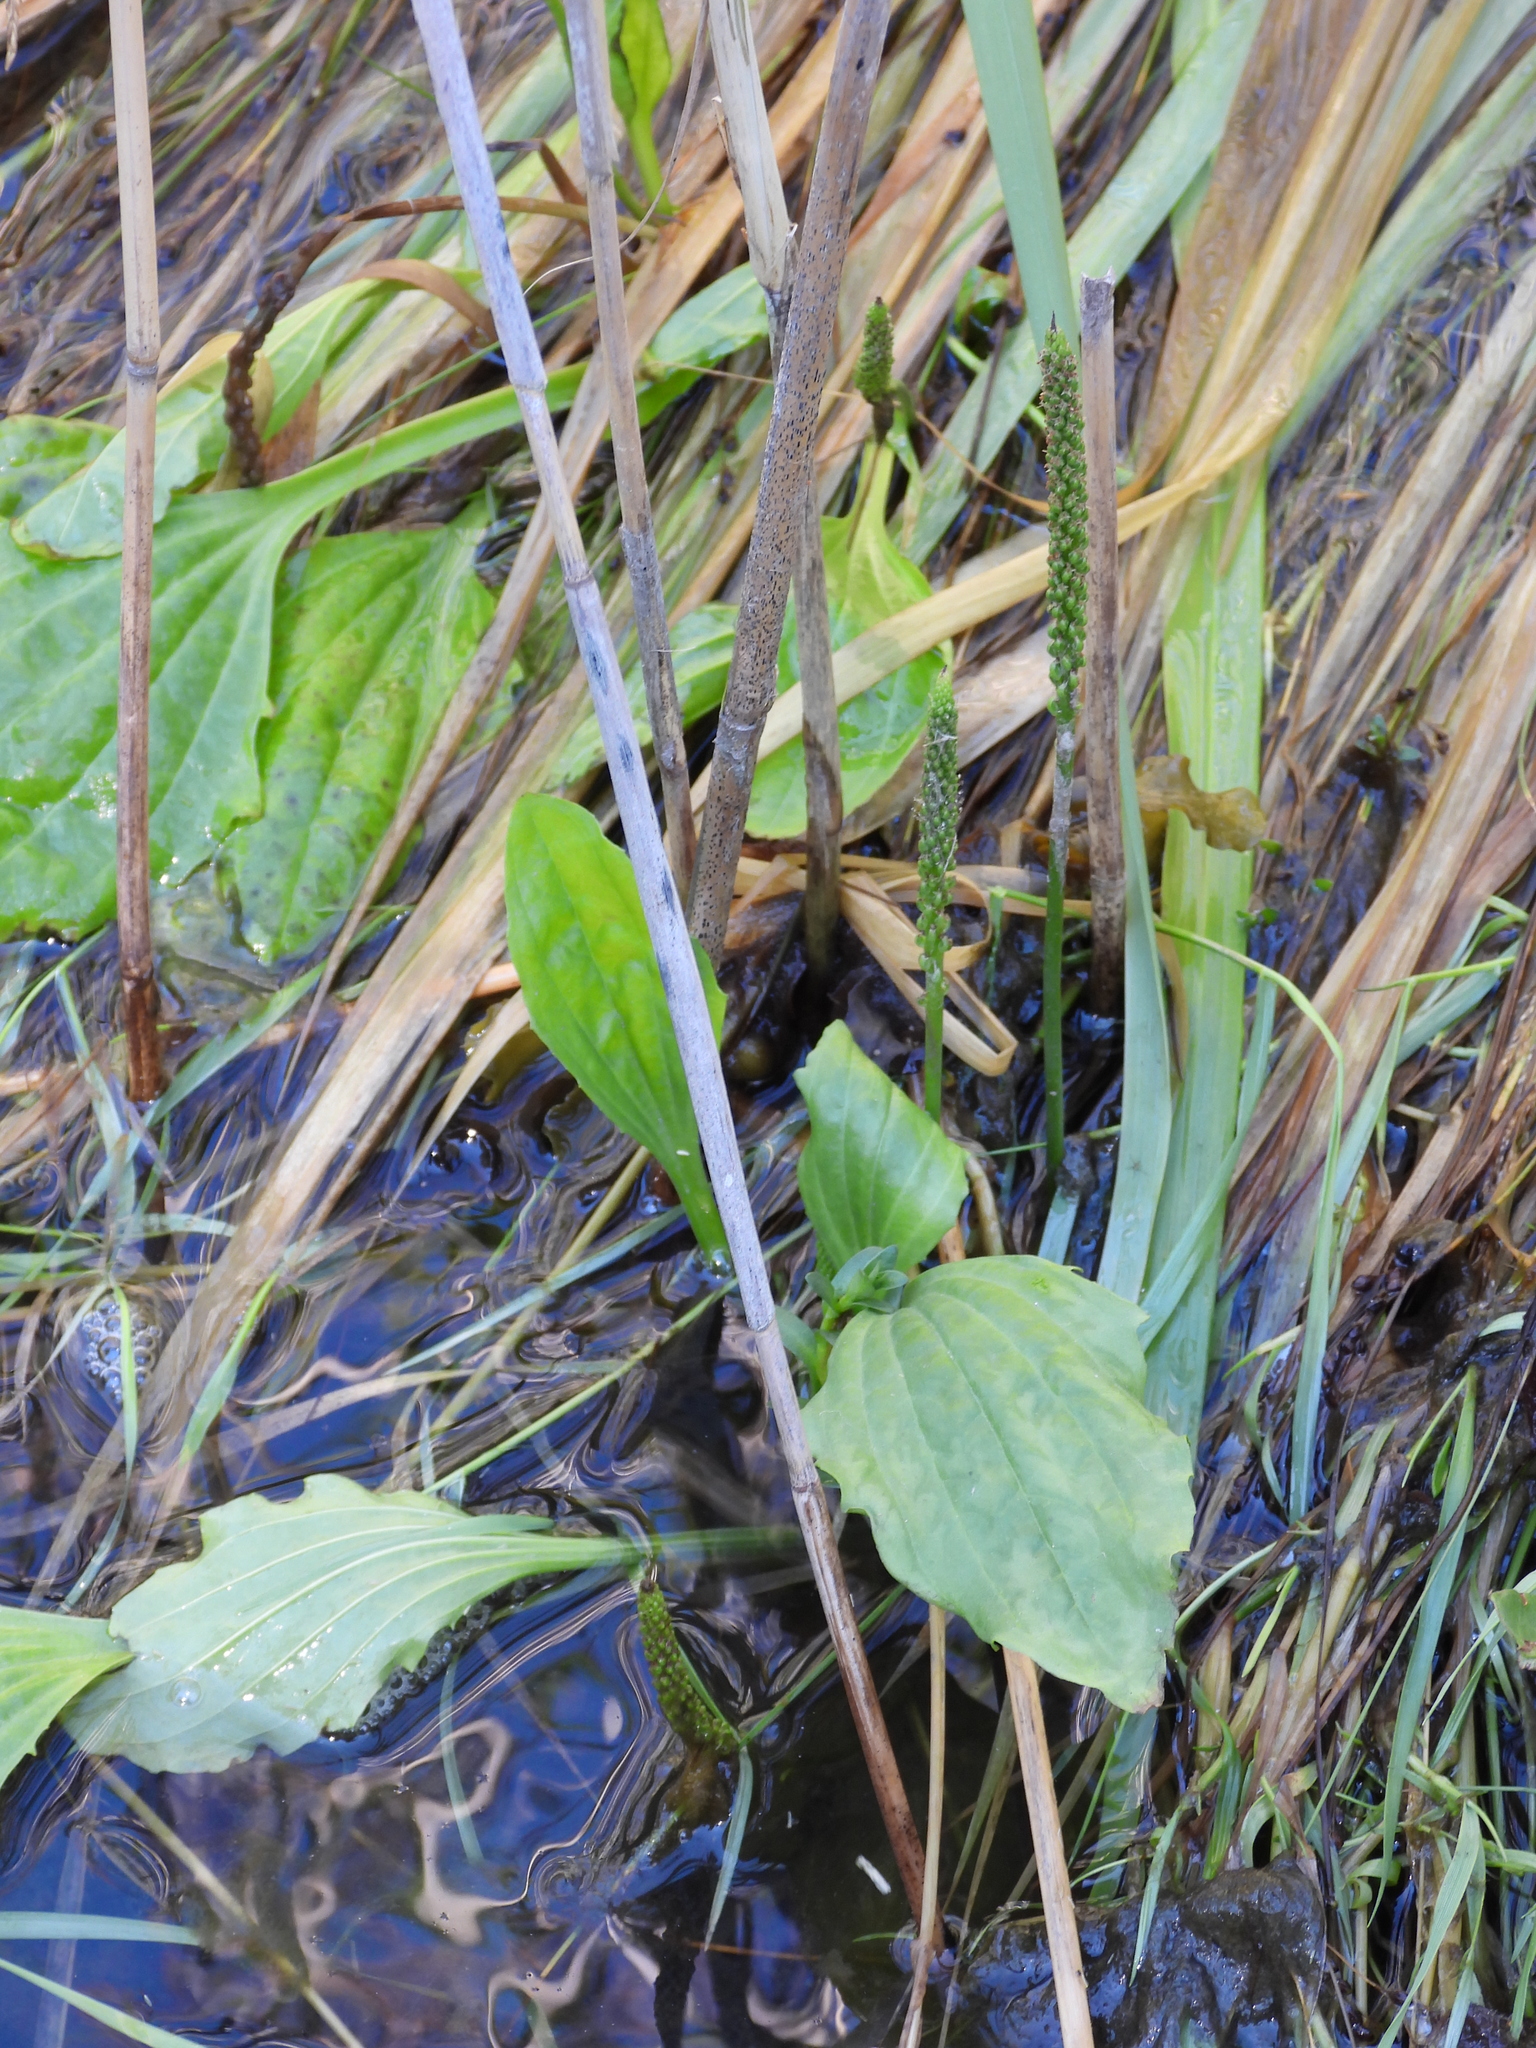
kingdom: Plantae
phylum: Tracheophyta
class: Magnoliopsida
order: Lamiales
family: Plantaginaceae
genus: Plantago
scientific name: Plantago major
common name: Common plantain
